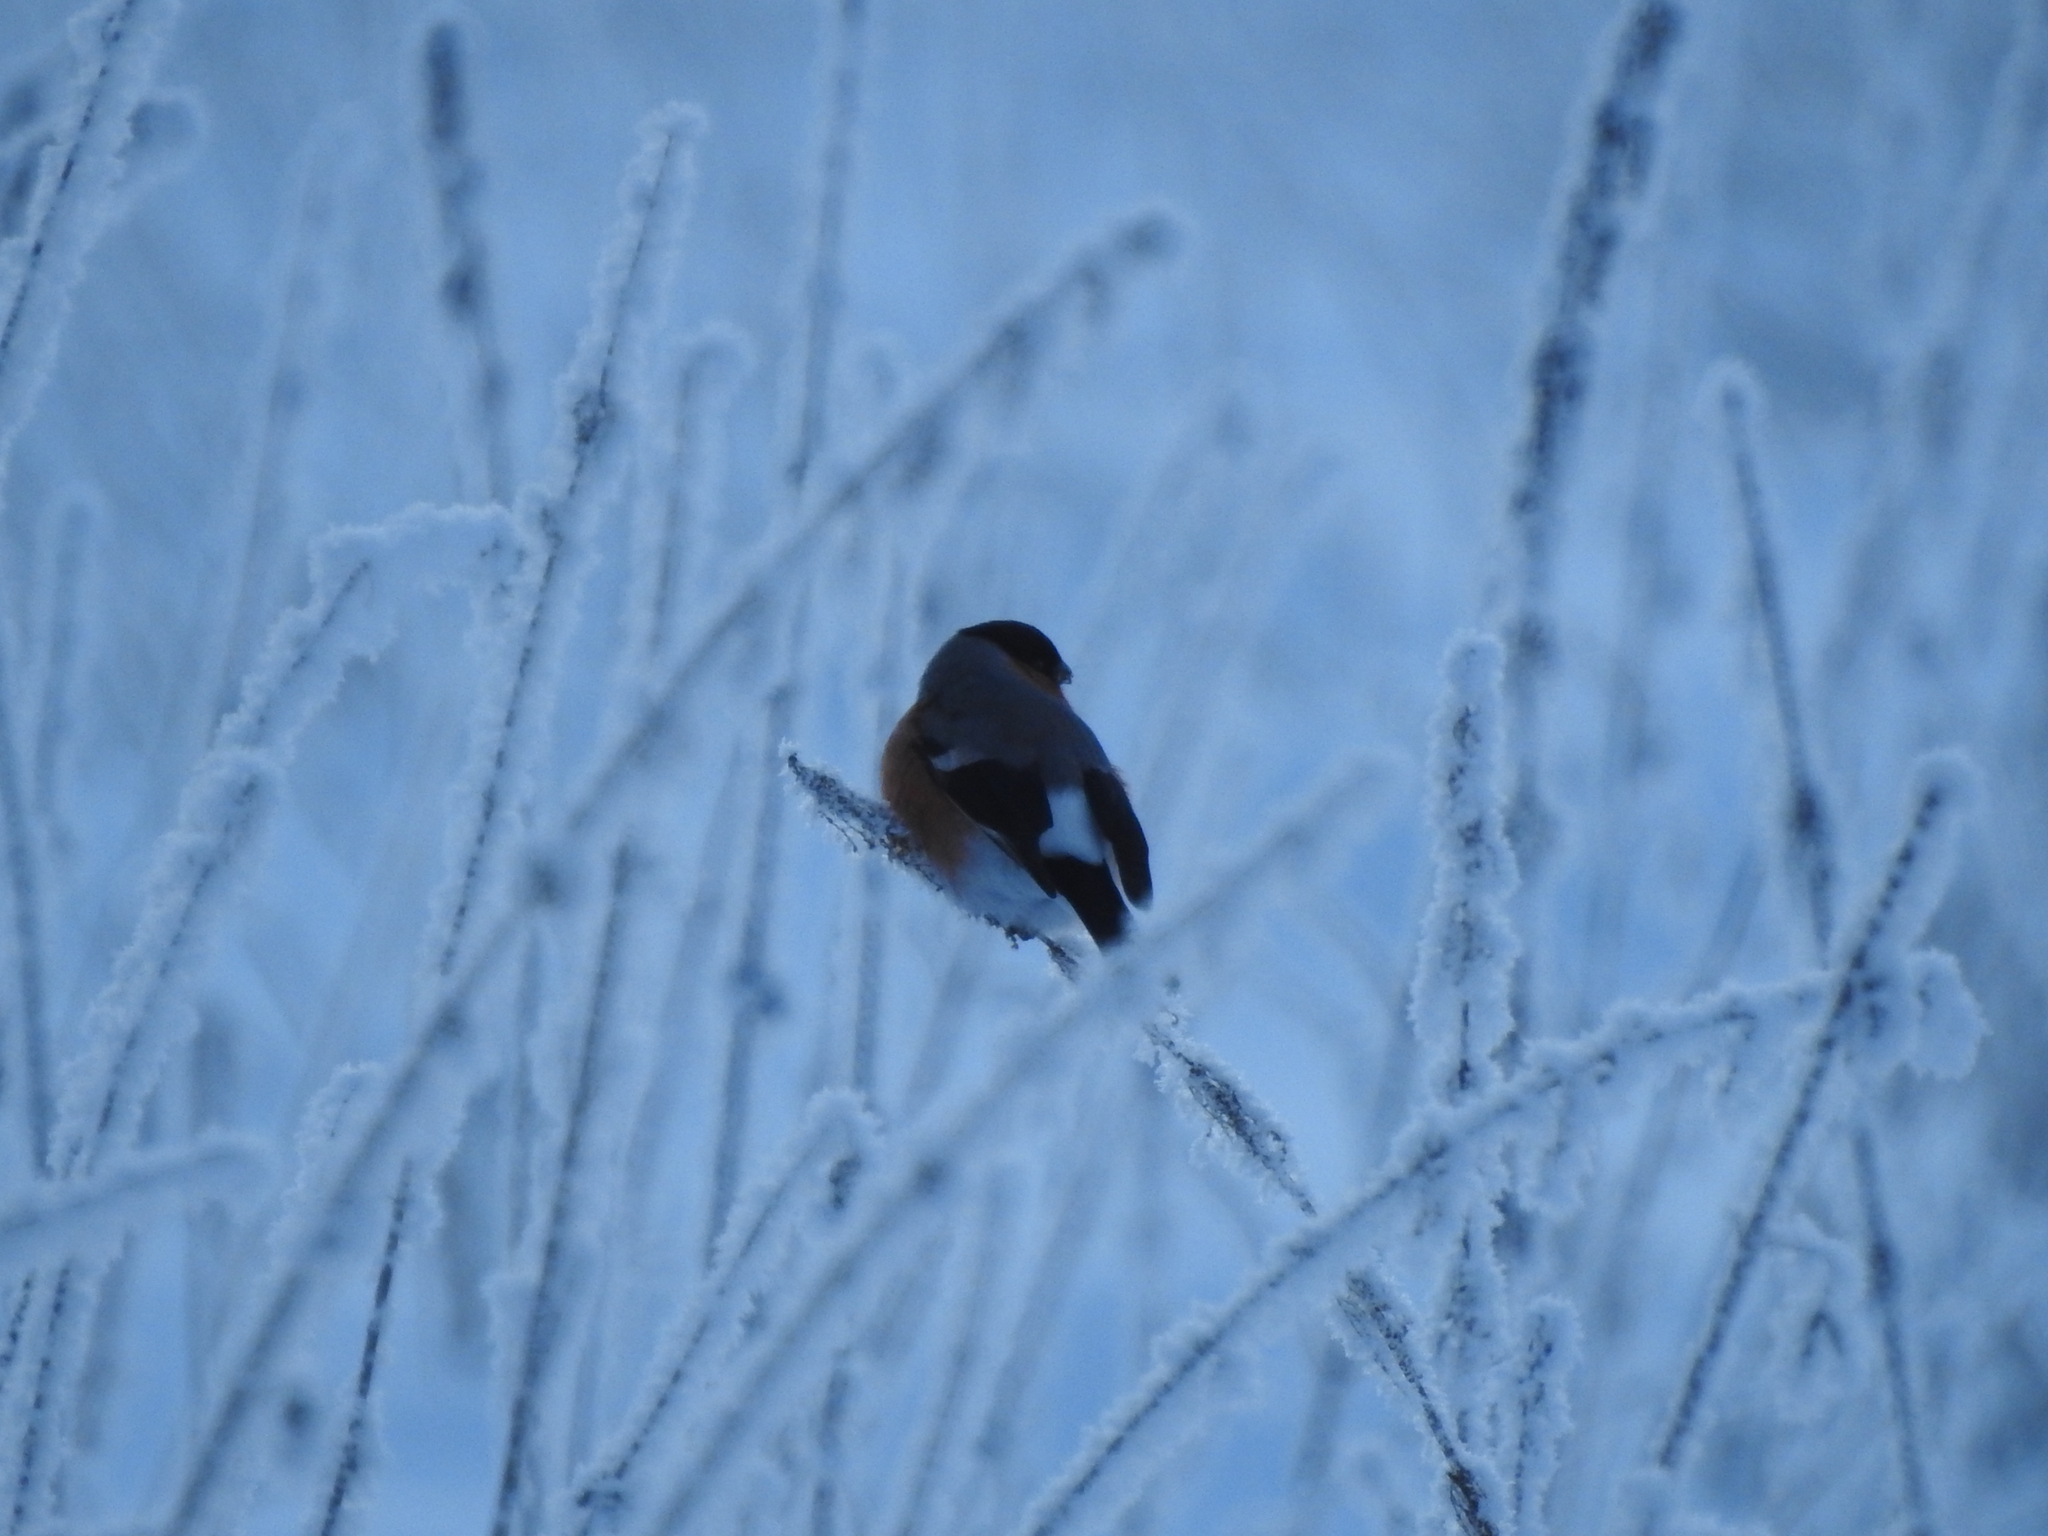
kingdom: Animalia
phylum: Chordata
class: Aves
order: Passeriformes
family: Fringillidae
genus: Pyrrhula
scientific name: Pyrrhula pyrrhula
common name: Eurasian bullfinch
